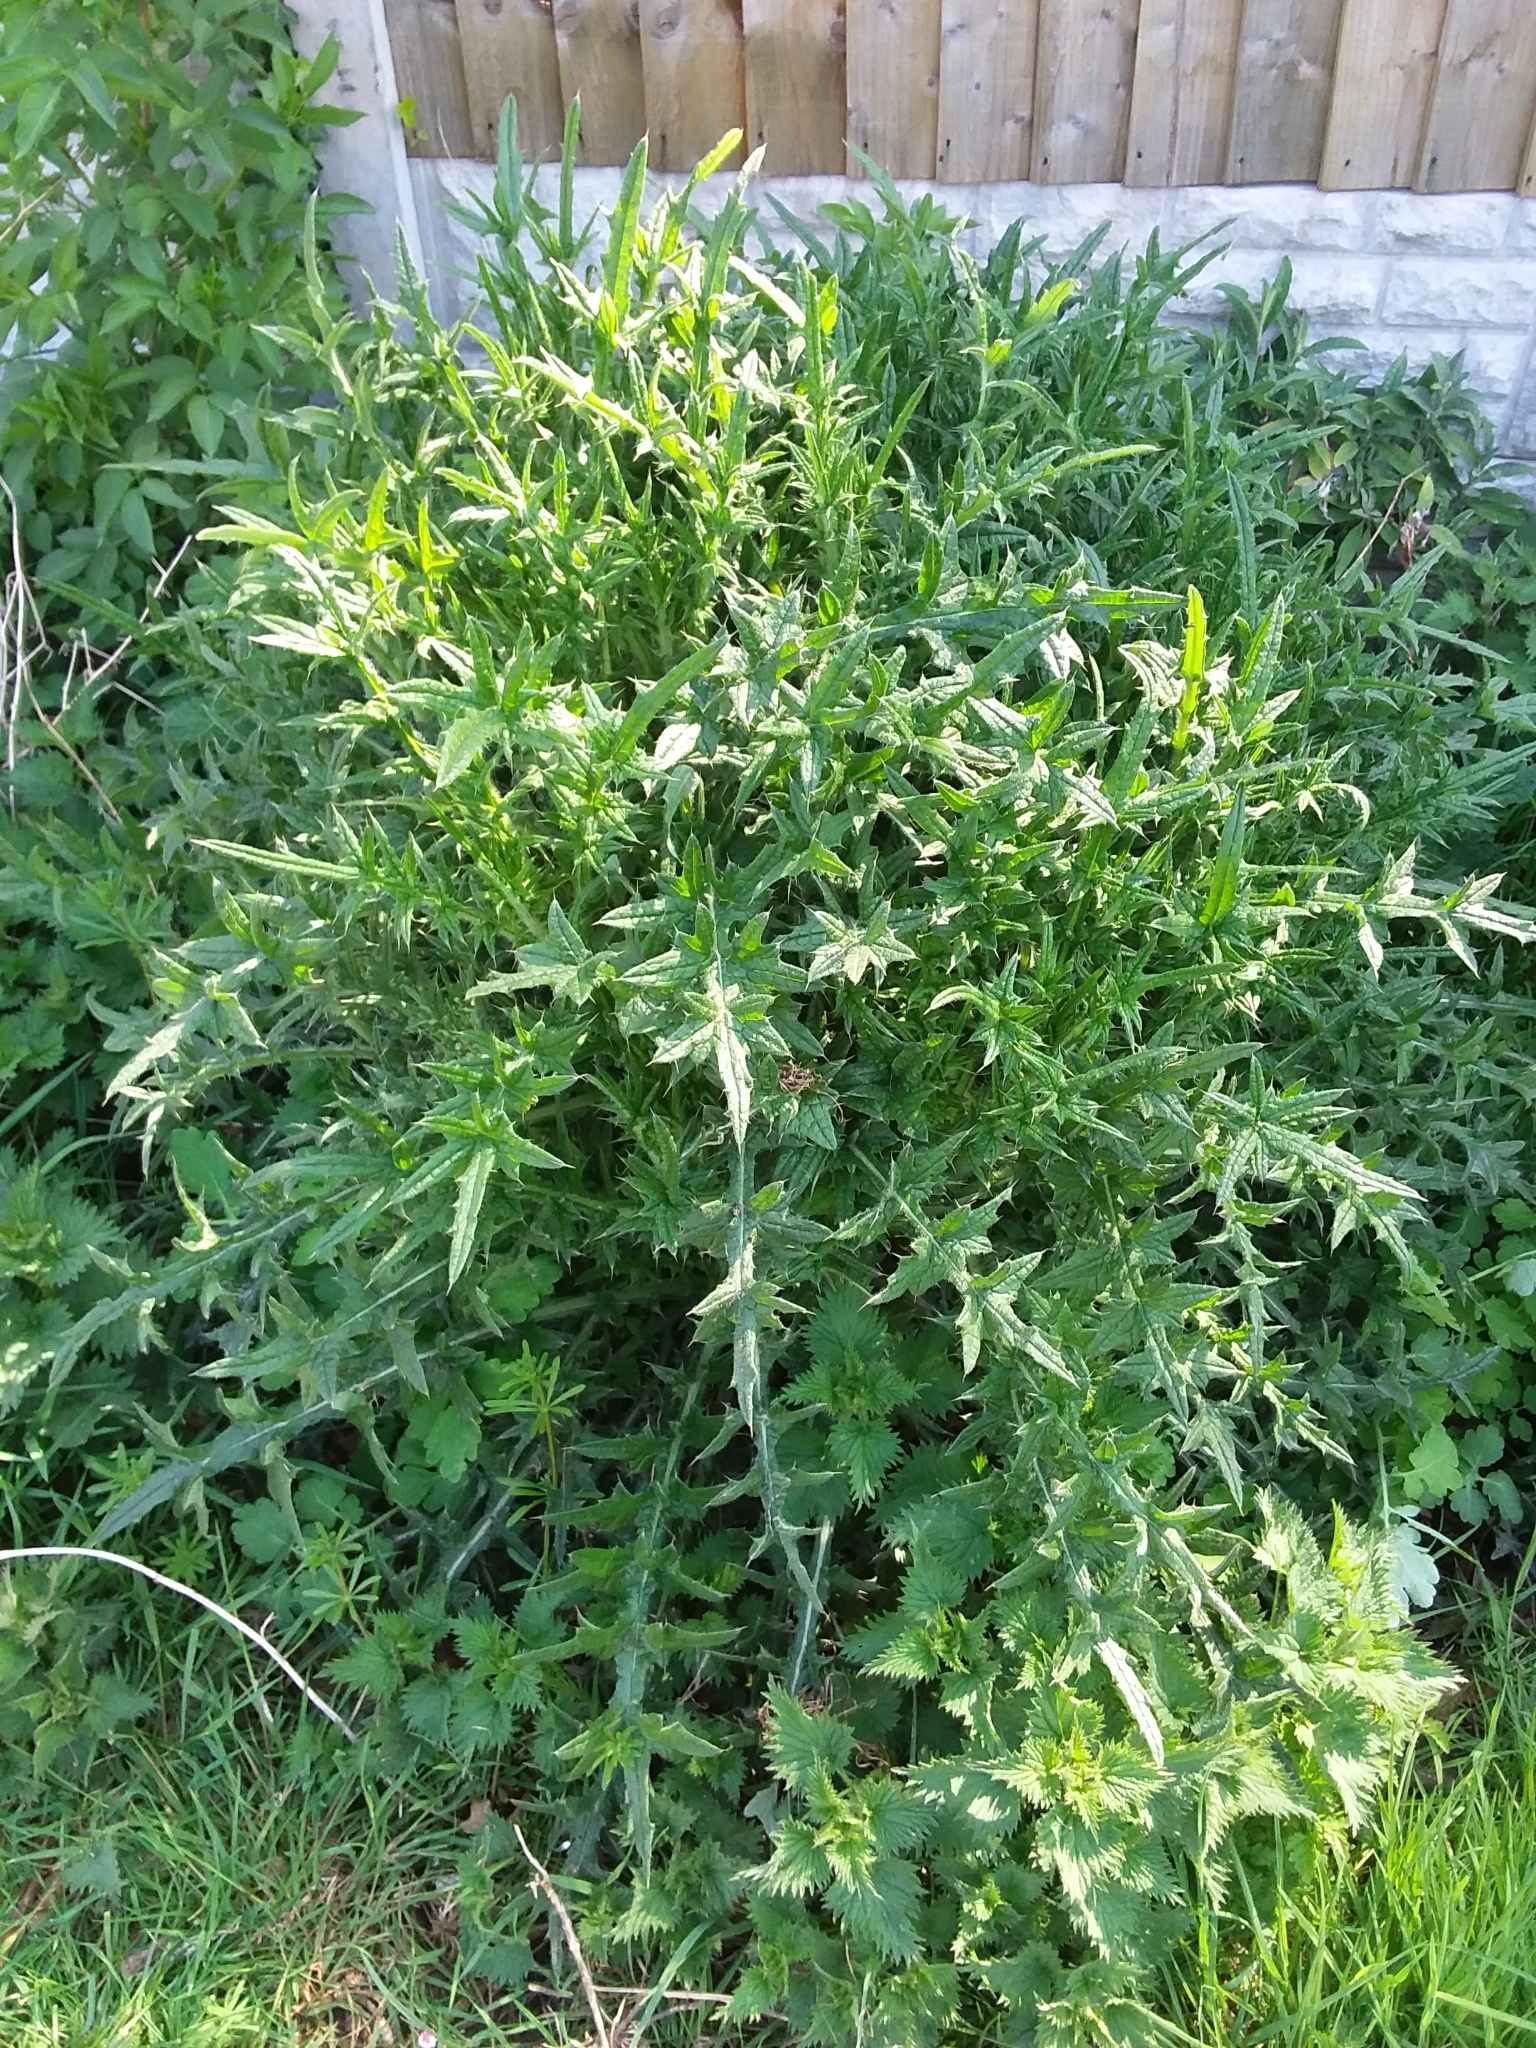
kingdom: Plantae
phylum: Tracheophyta
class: Magnoliopsida
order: Asterales
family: Asteraceae
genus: Cirsium
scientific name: Cirsium vulgare
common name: Bull thistle
